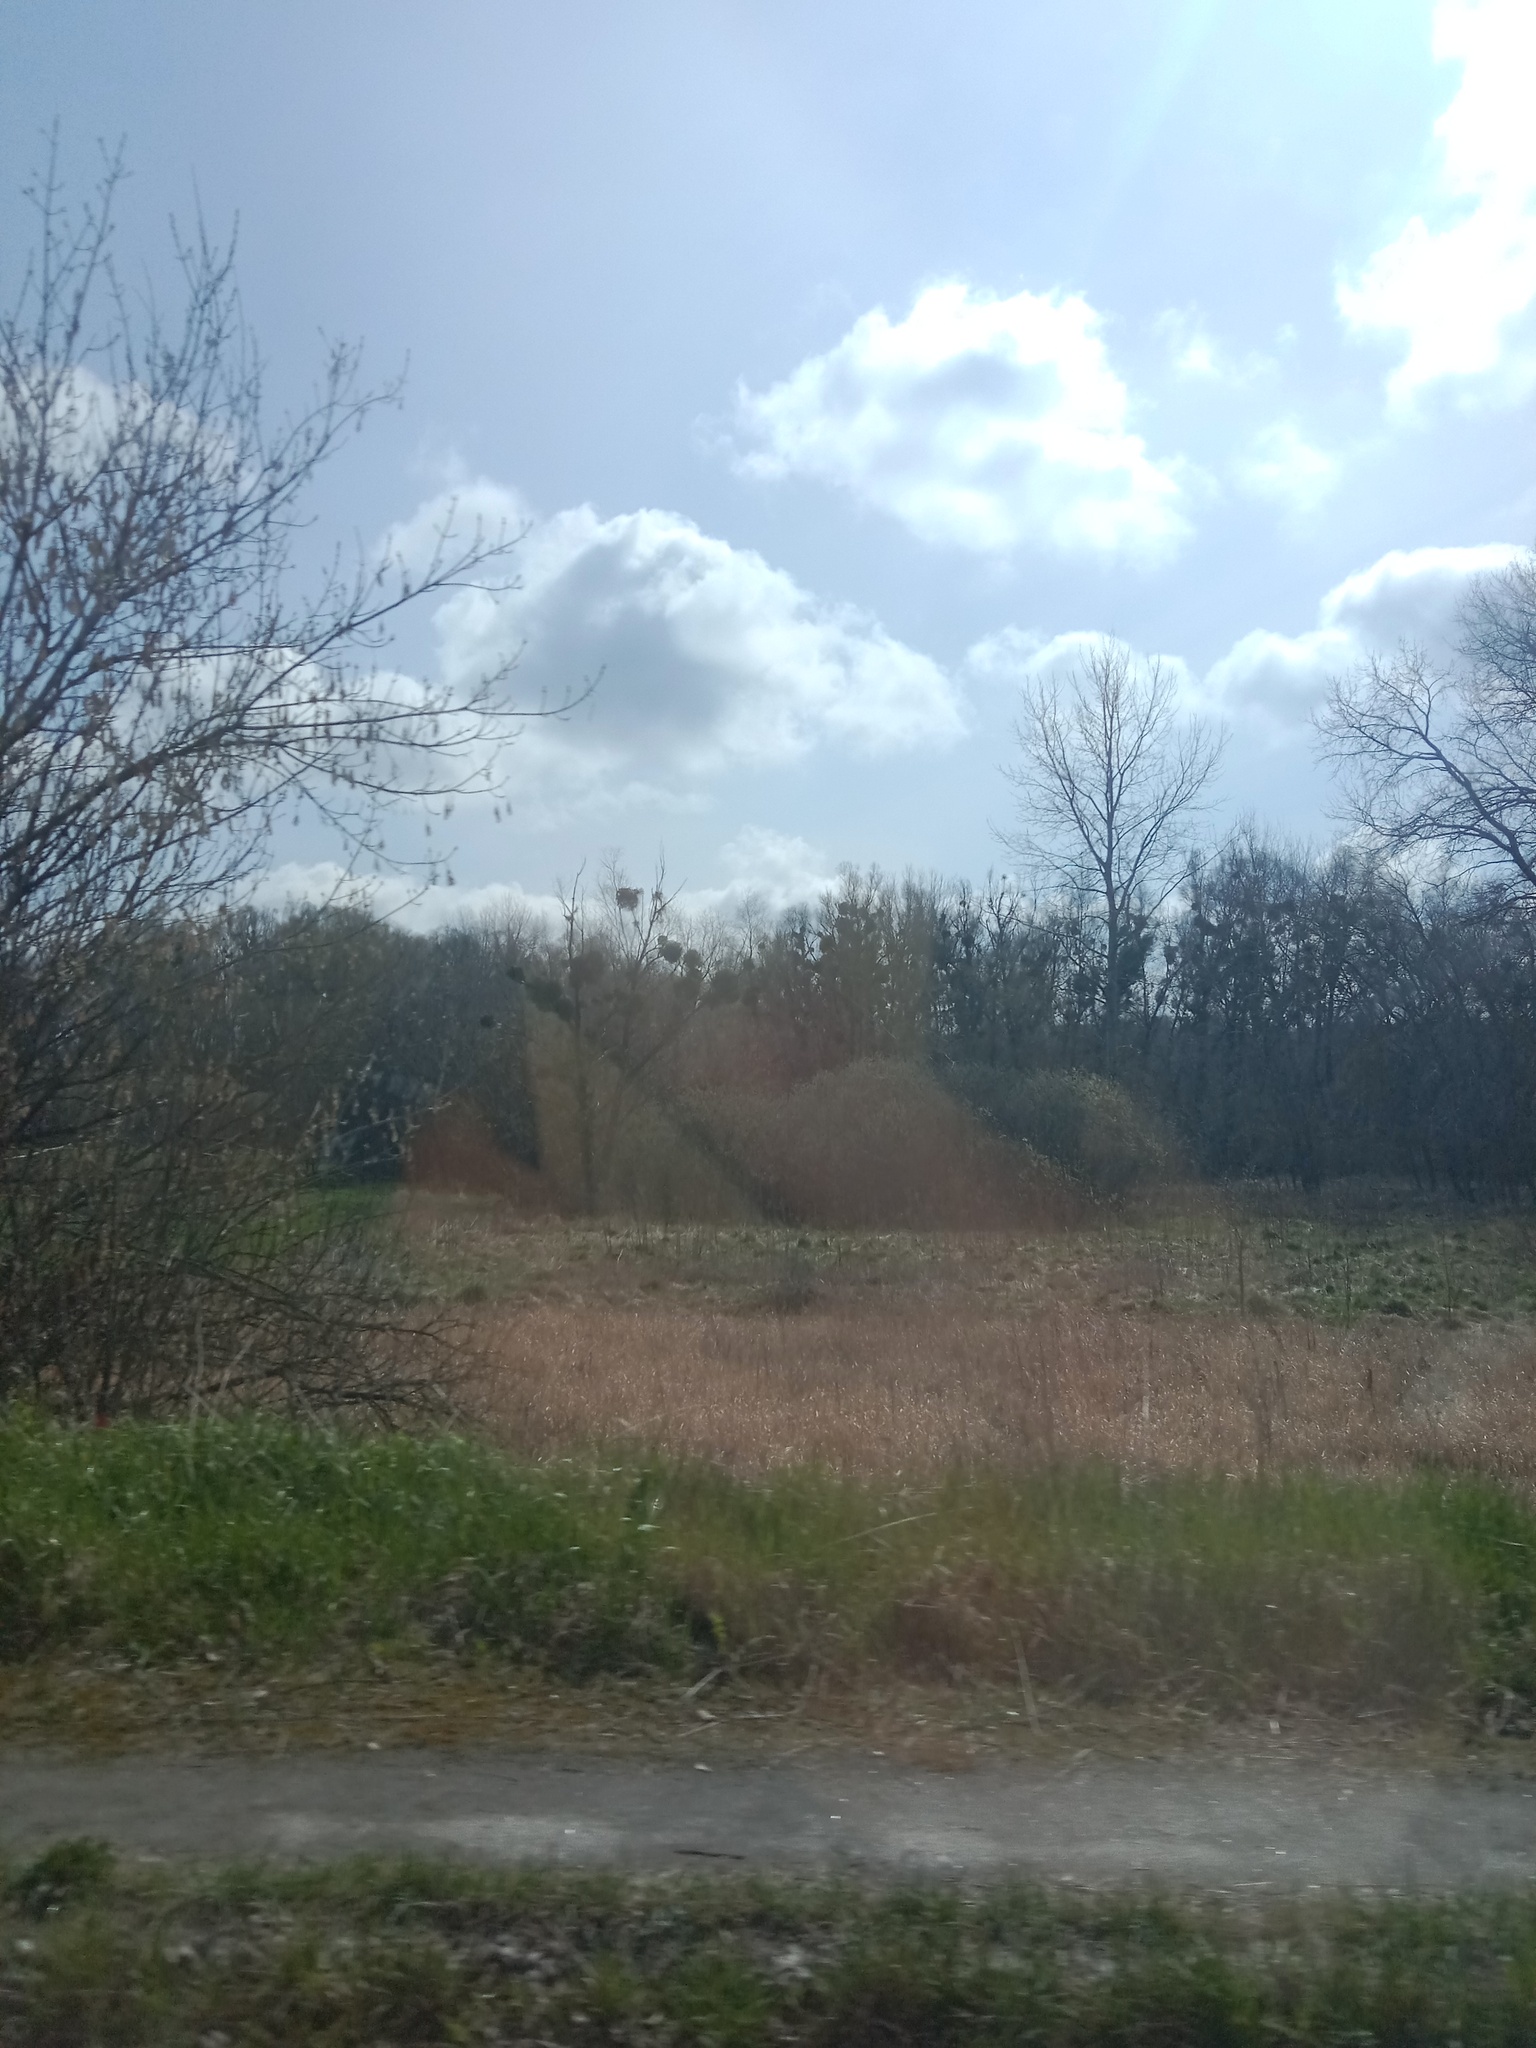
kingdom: Plantae
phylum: Tracheophyta
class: Magnoliopsida
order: Santalales
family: Viscaceae
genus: Viscum
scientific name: Viscum album
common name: Mistletoe
